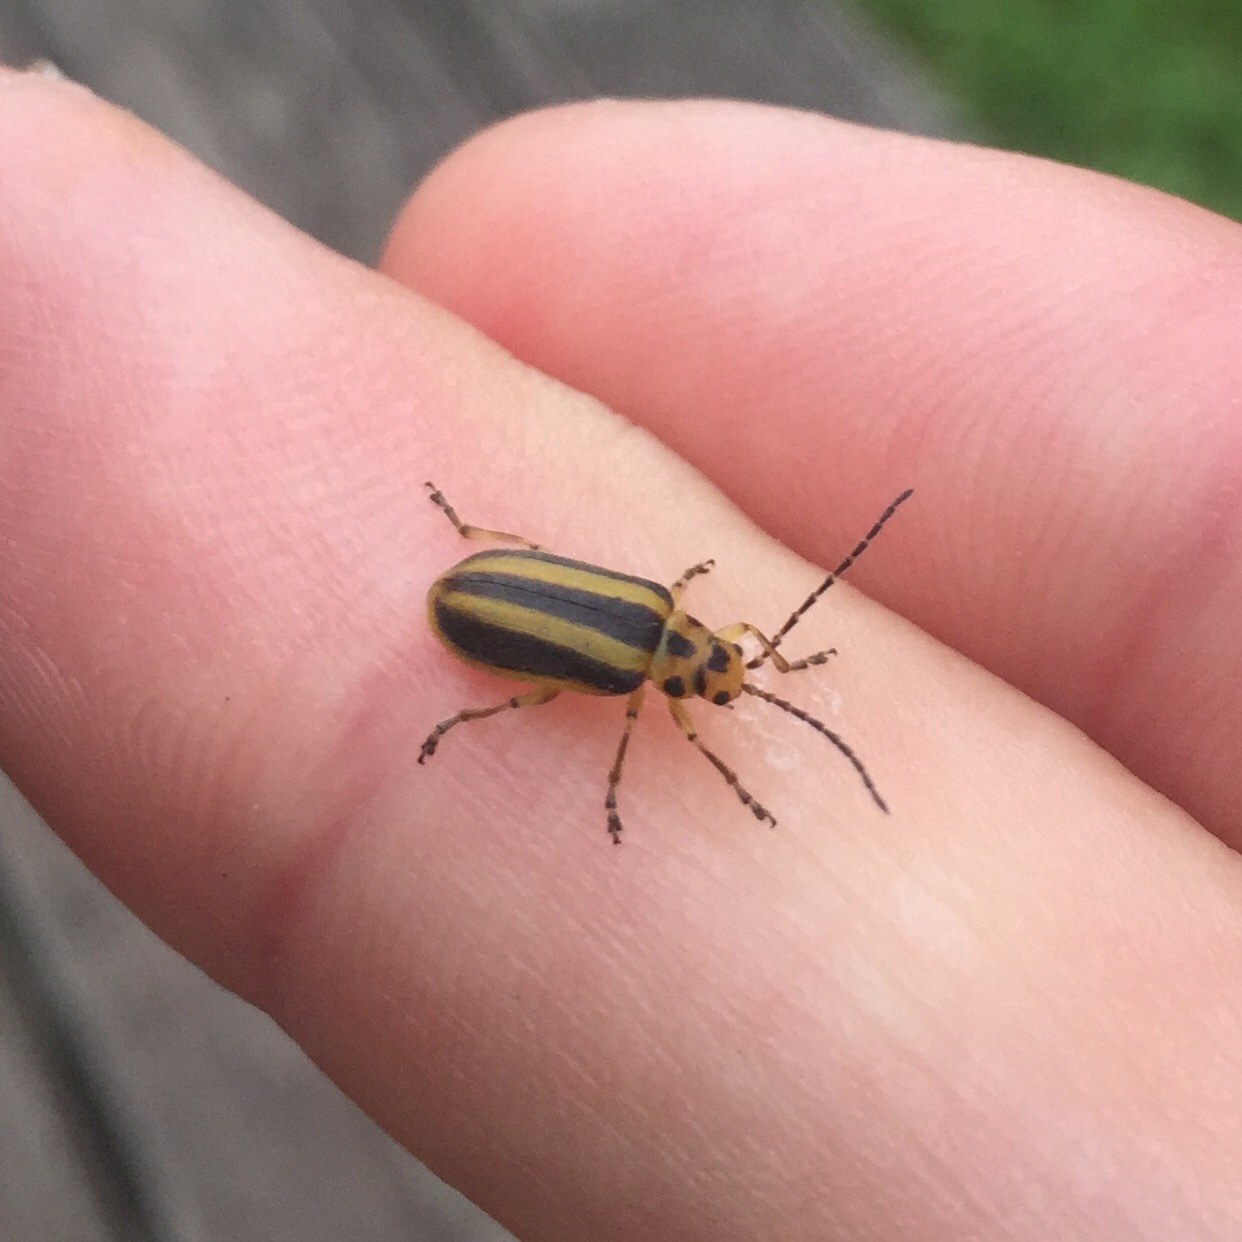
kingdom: Animalia
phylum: Arthropoda
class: Insecta
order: Coleoptera
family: Chrysomelidae
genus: Trirhabda
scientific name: Trirhabda virgata
